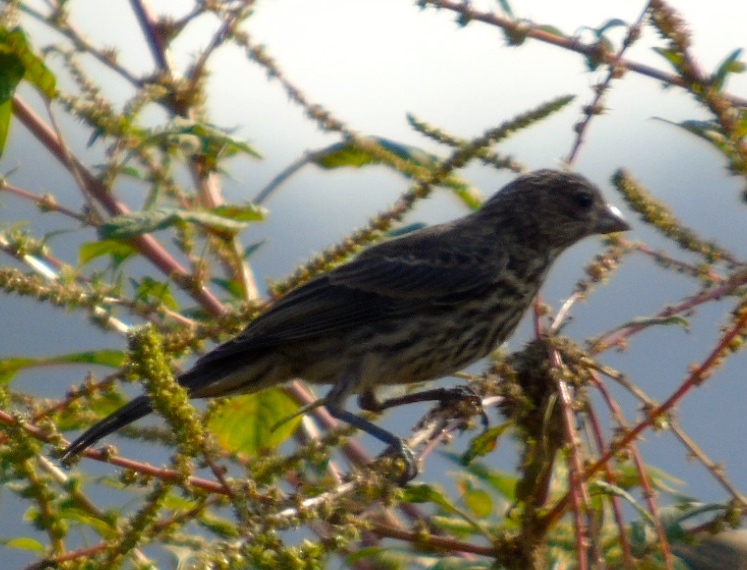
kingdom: Animalia
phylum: Chordata
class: Aves
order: Passeriformes
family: Fringillidae
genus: Haemorhous
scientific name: Haemorhous mexicanus
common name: House finch
